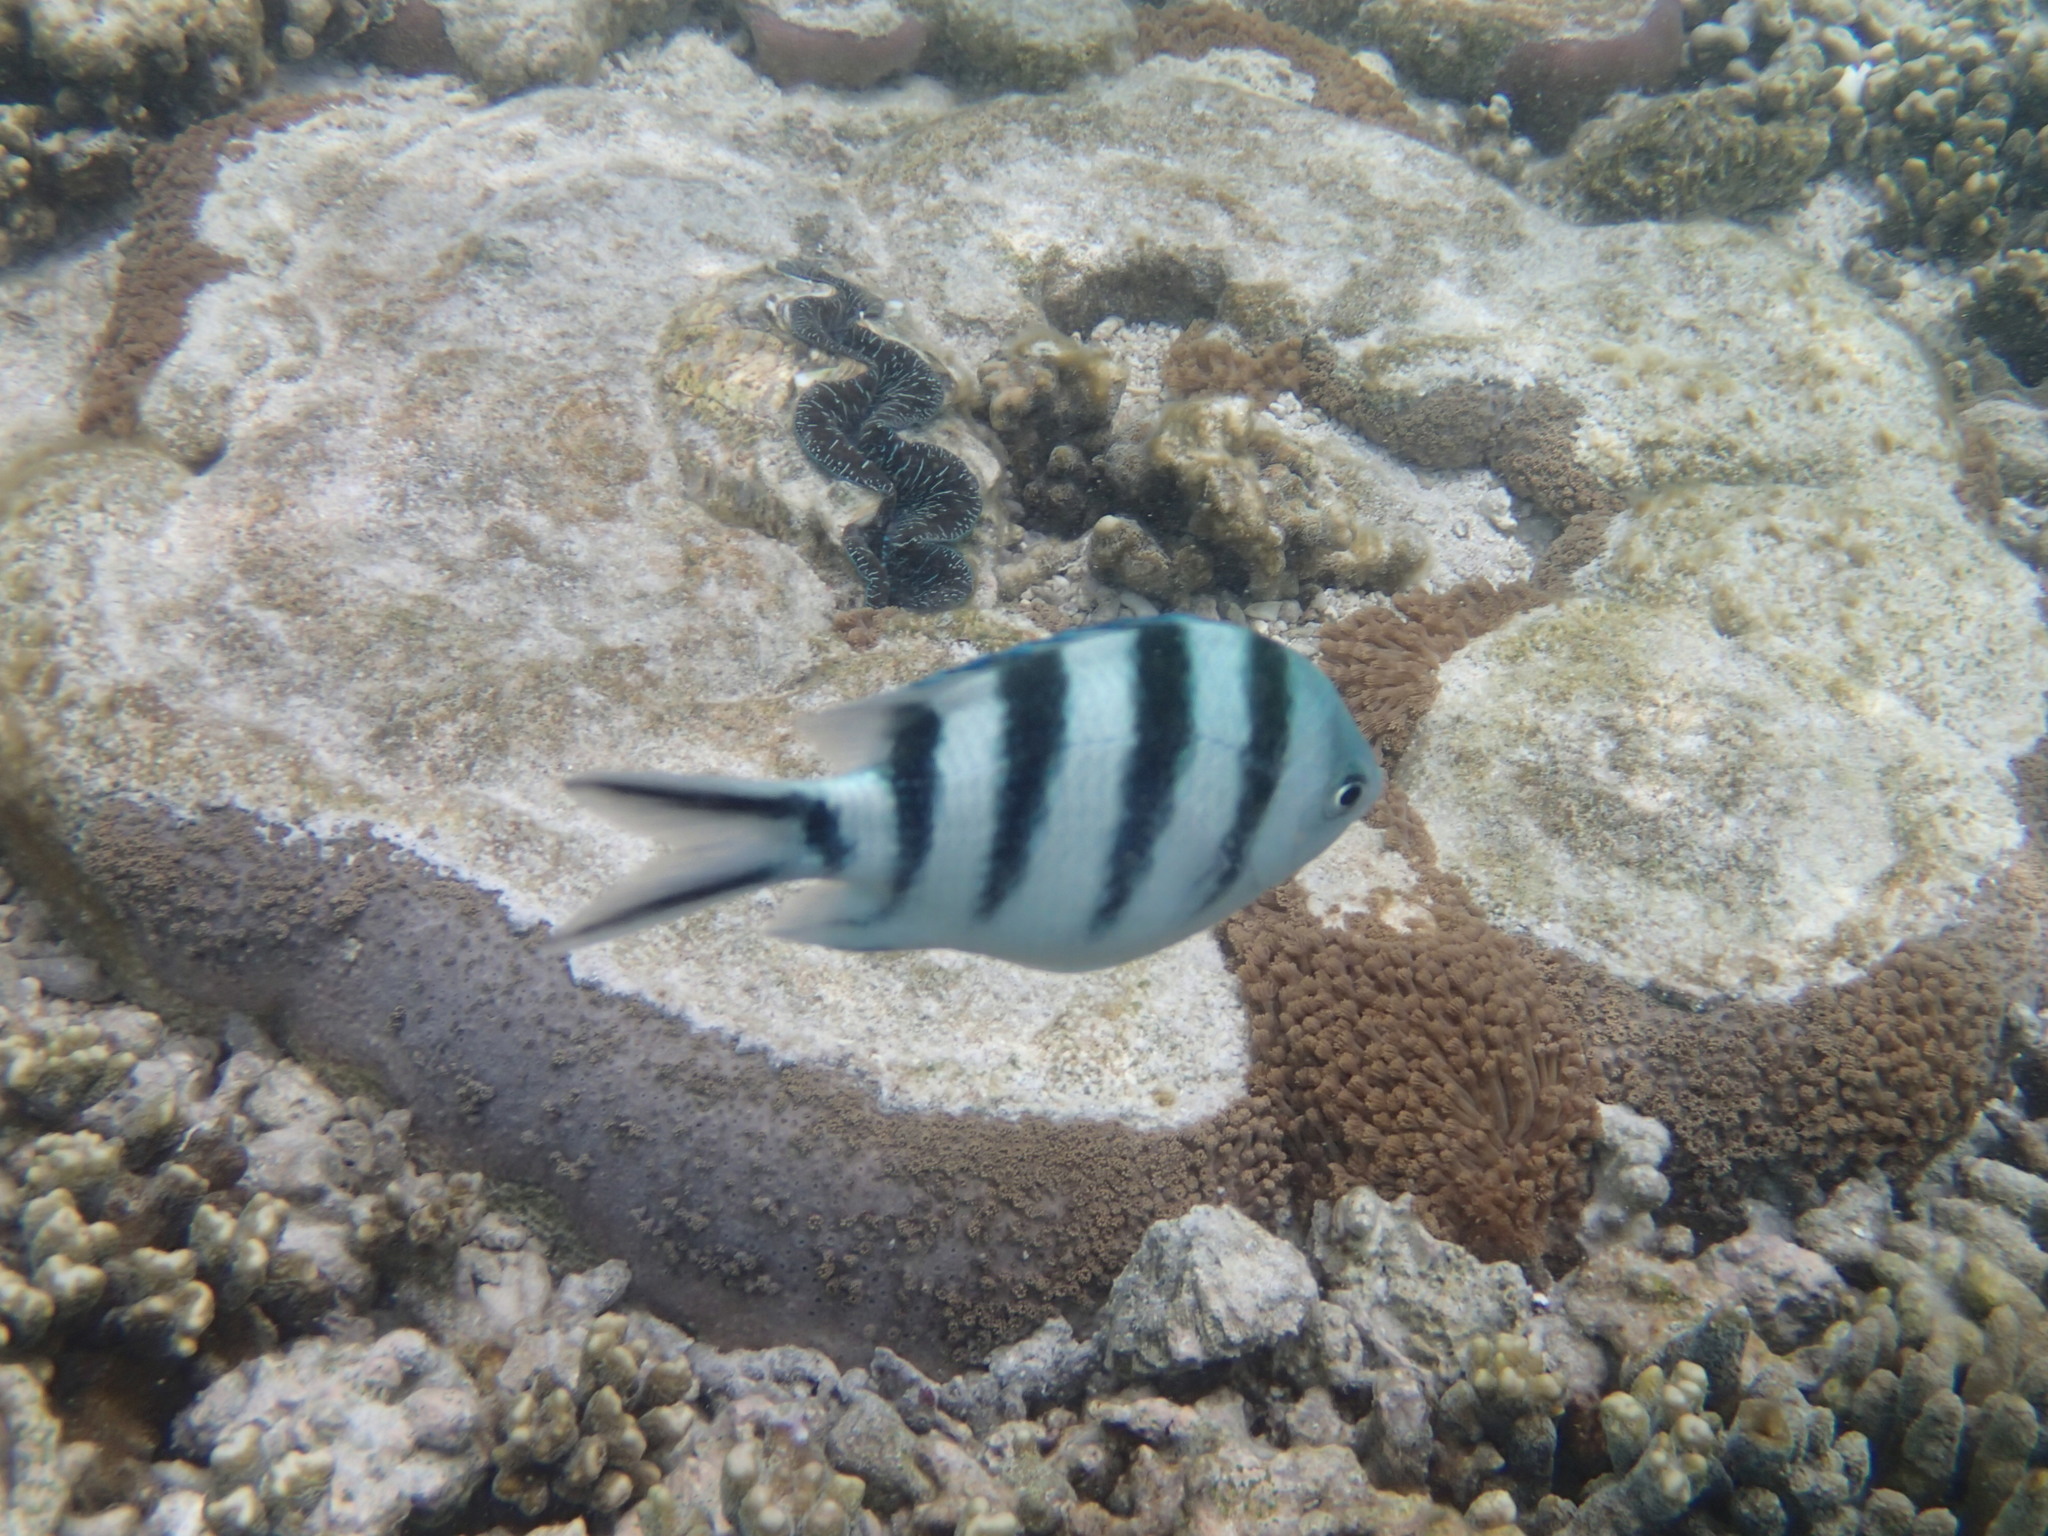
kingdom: Animalia
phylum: Chordata
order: Perciformes
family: Pomacentridae
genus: Abudefduf
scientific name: Abudefduf sexfasciatus
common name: Scissortail sergeant
